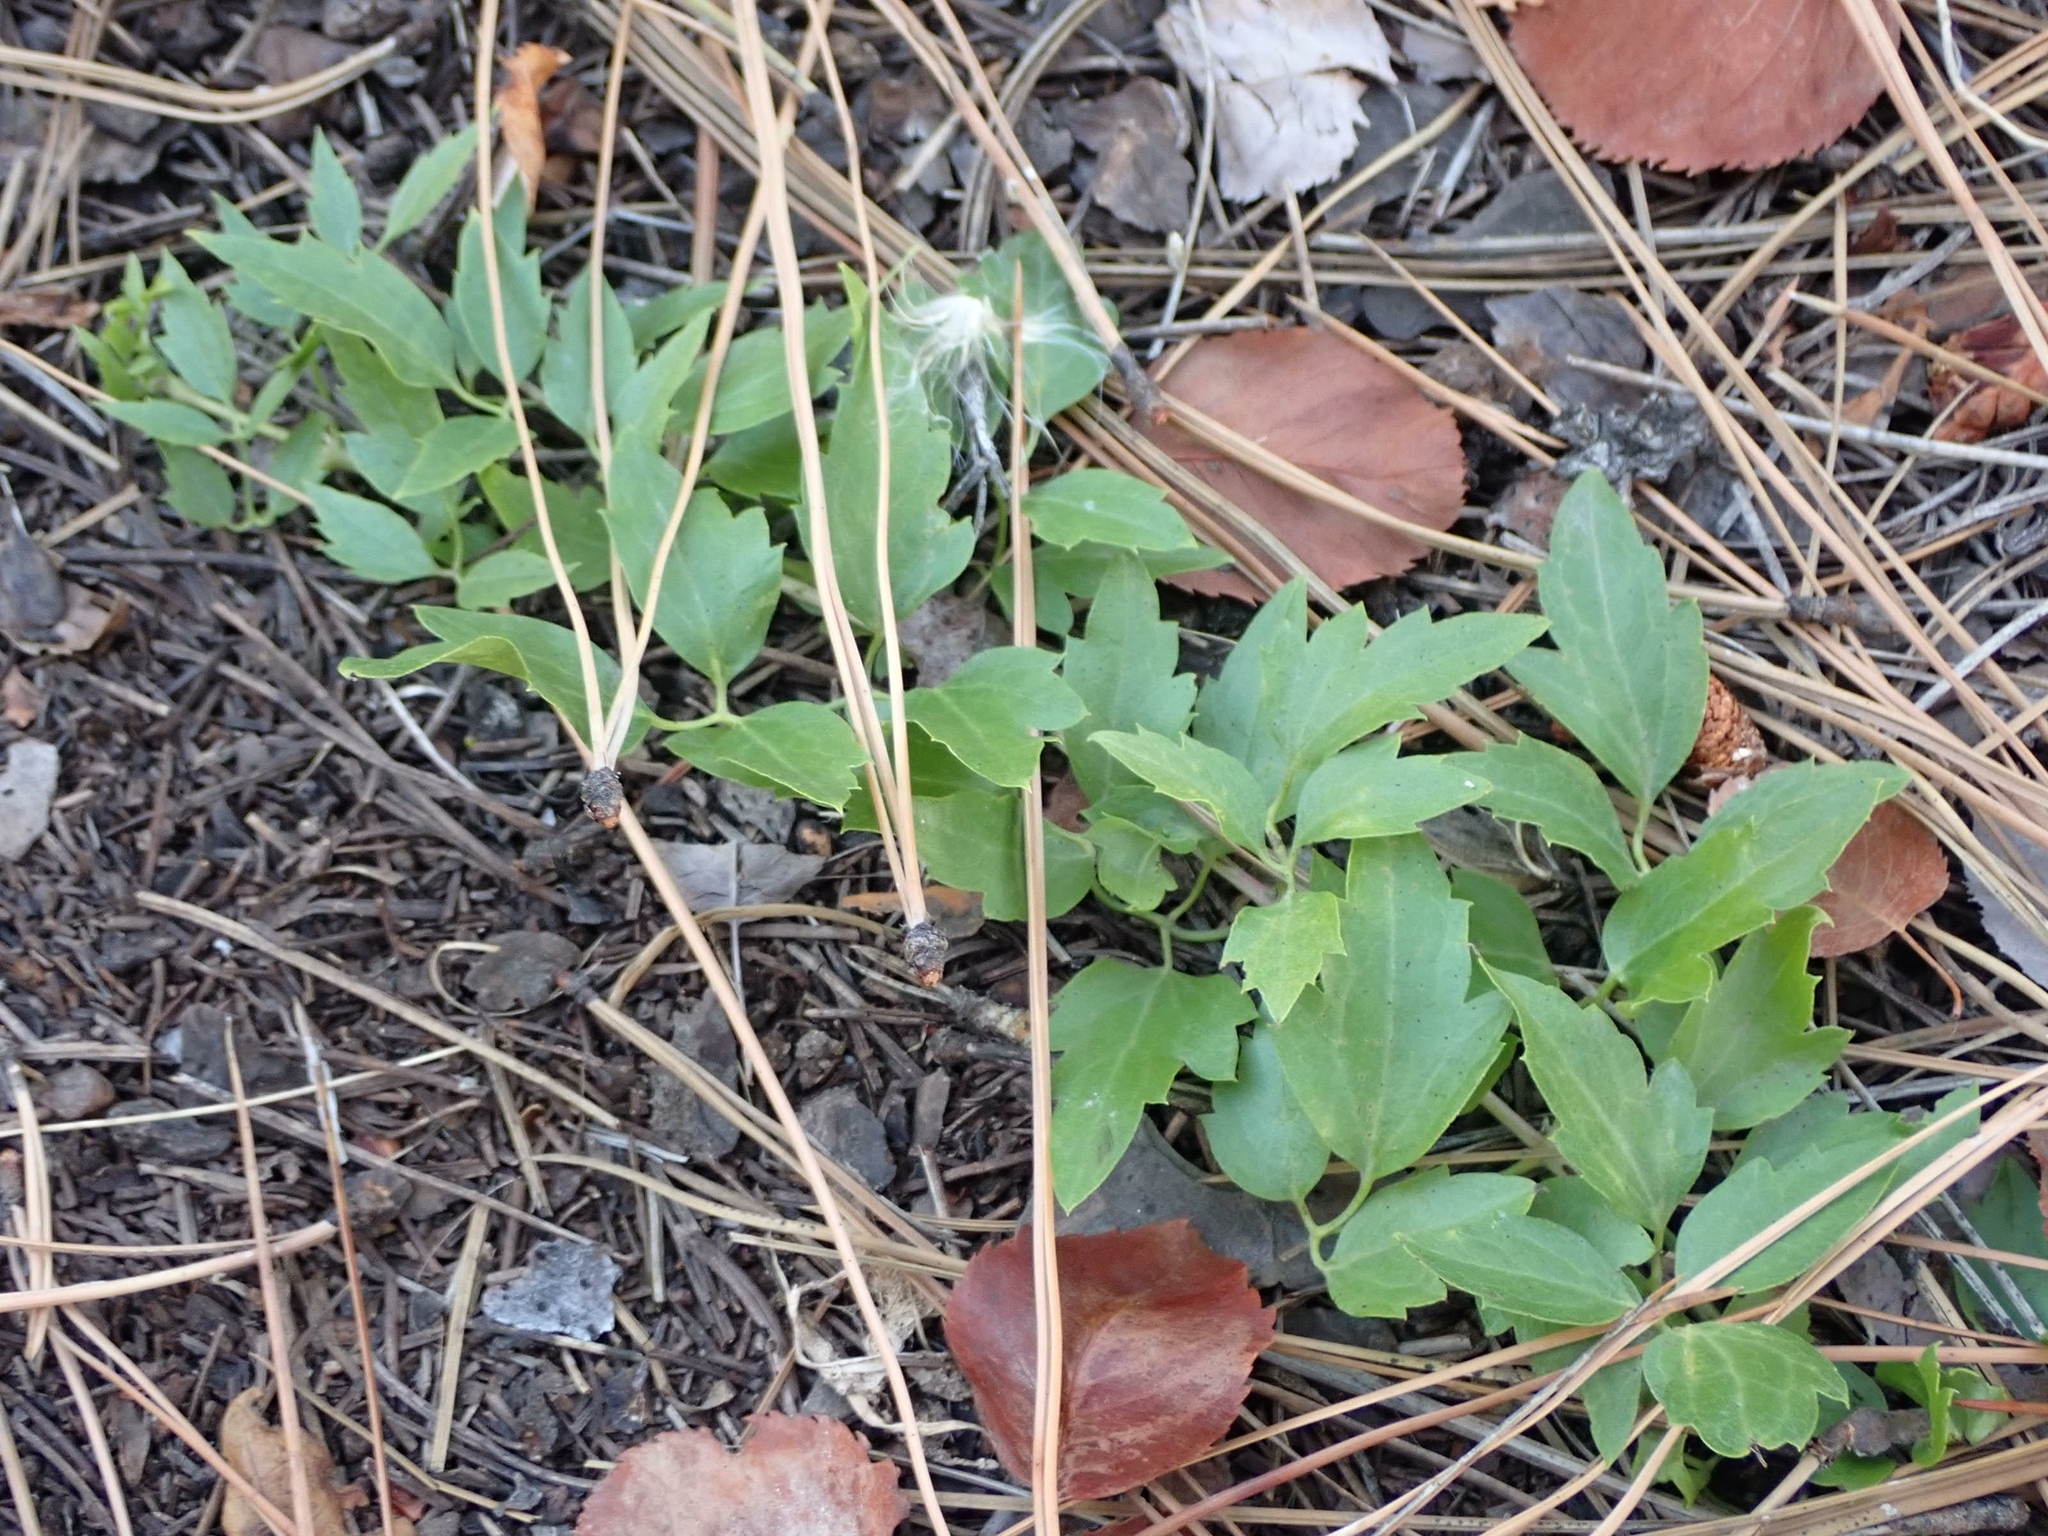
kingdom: Plantae
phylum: Tracheophyta
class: Magnoliopsida
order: Ranunculales
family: Ranunculaceae
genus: Clematis
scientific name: Clematis ligusticifolia
